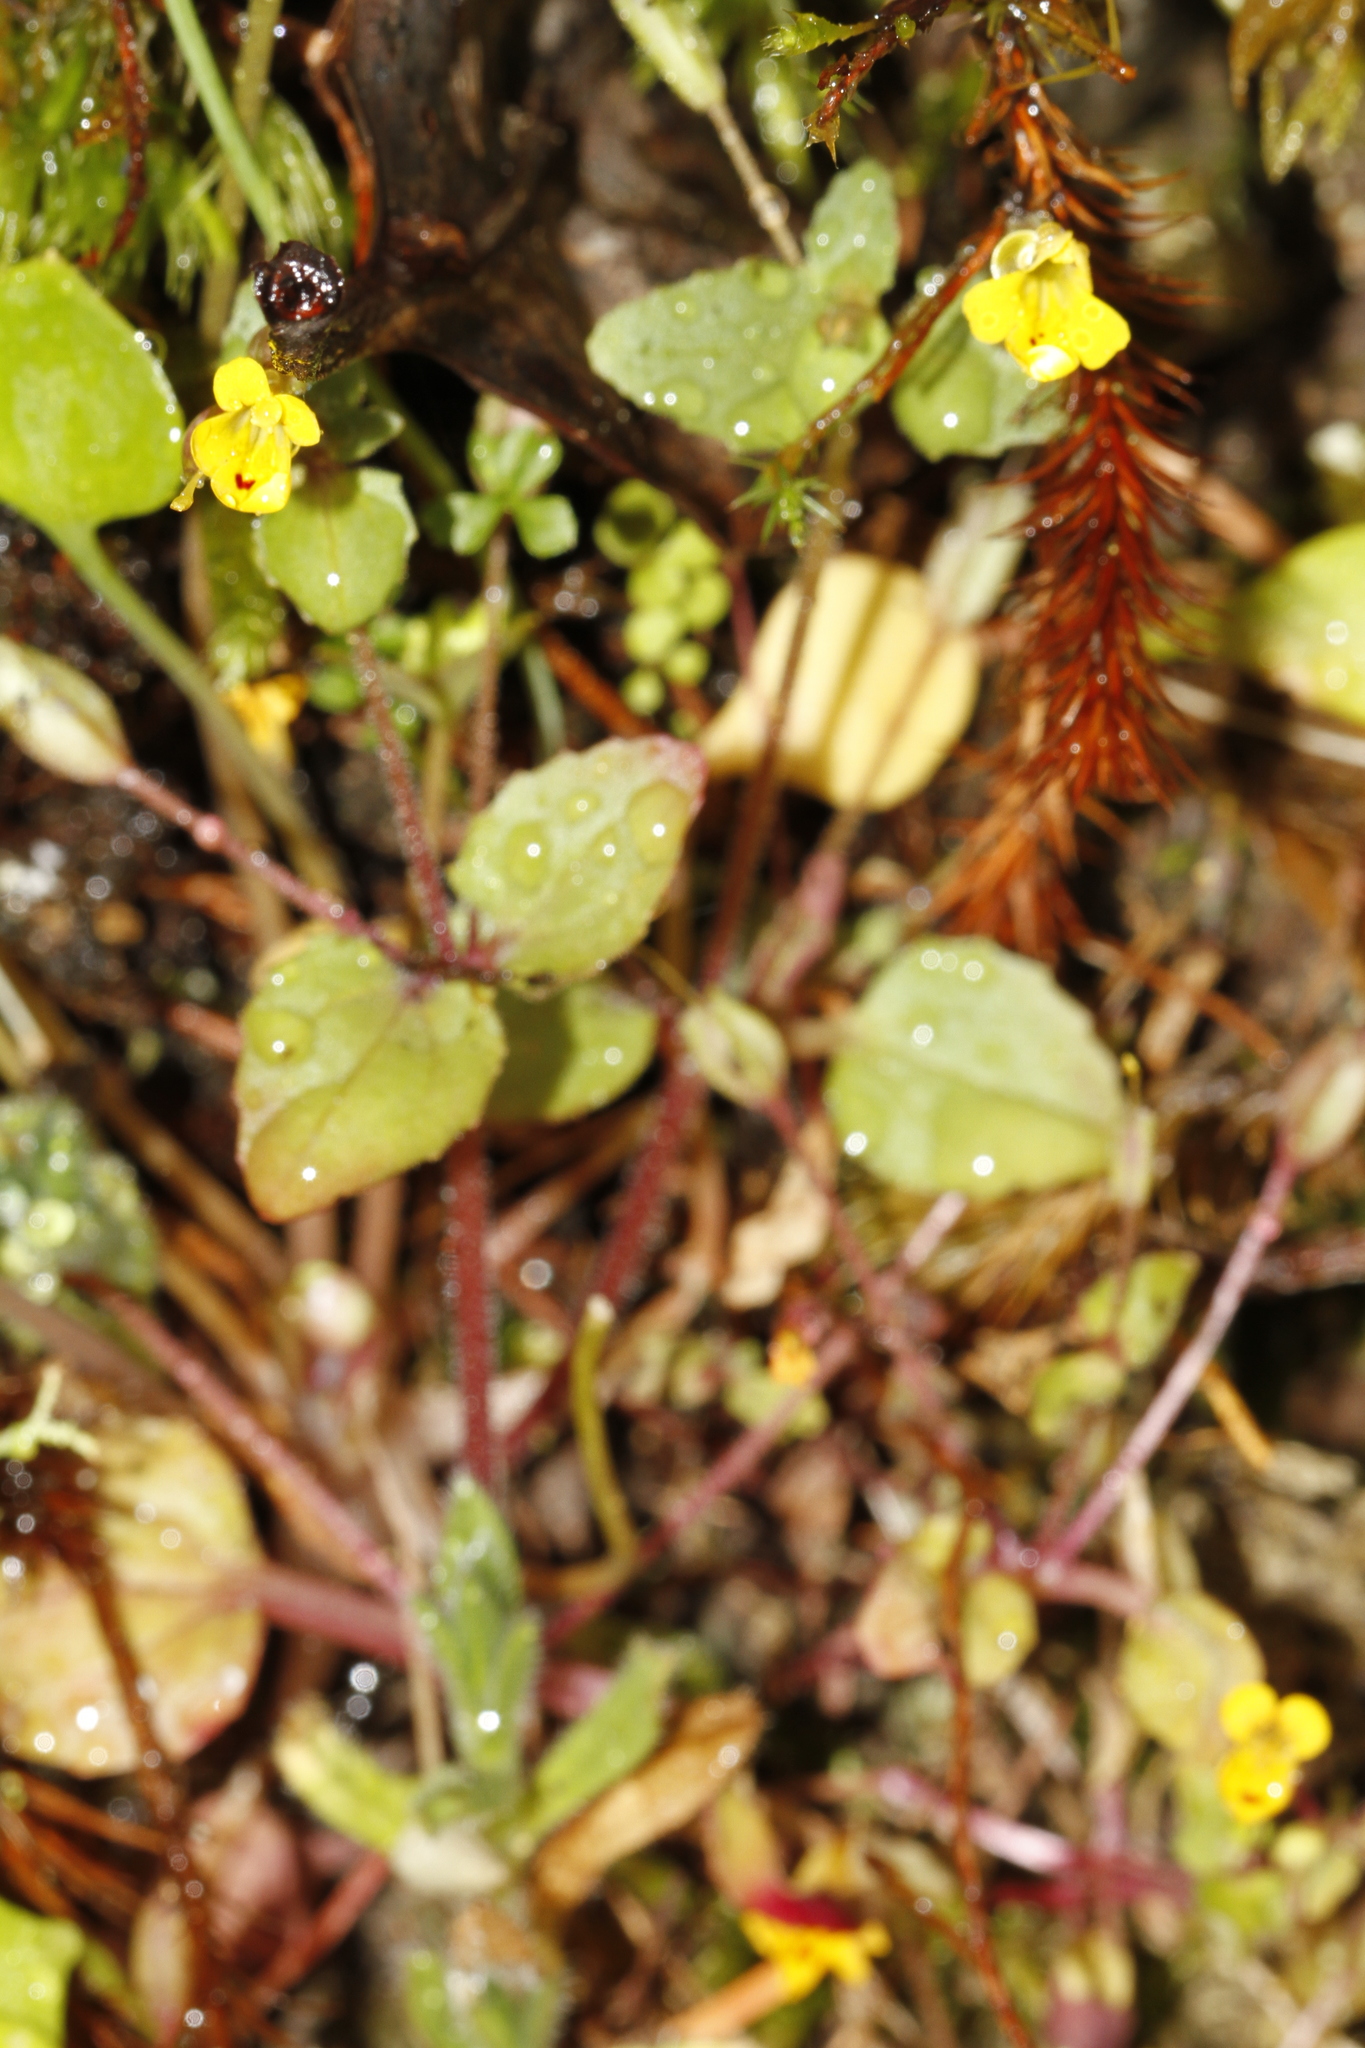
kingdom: Plantae
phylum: Tracheophyta
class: Magnoliopsida
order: Lamiales
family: Phrymaceae
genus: Erythranthe
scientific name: Erythranthe alsinoides
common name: Chickweed monkeyflower
